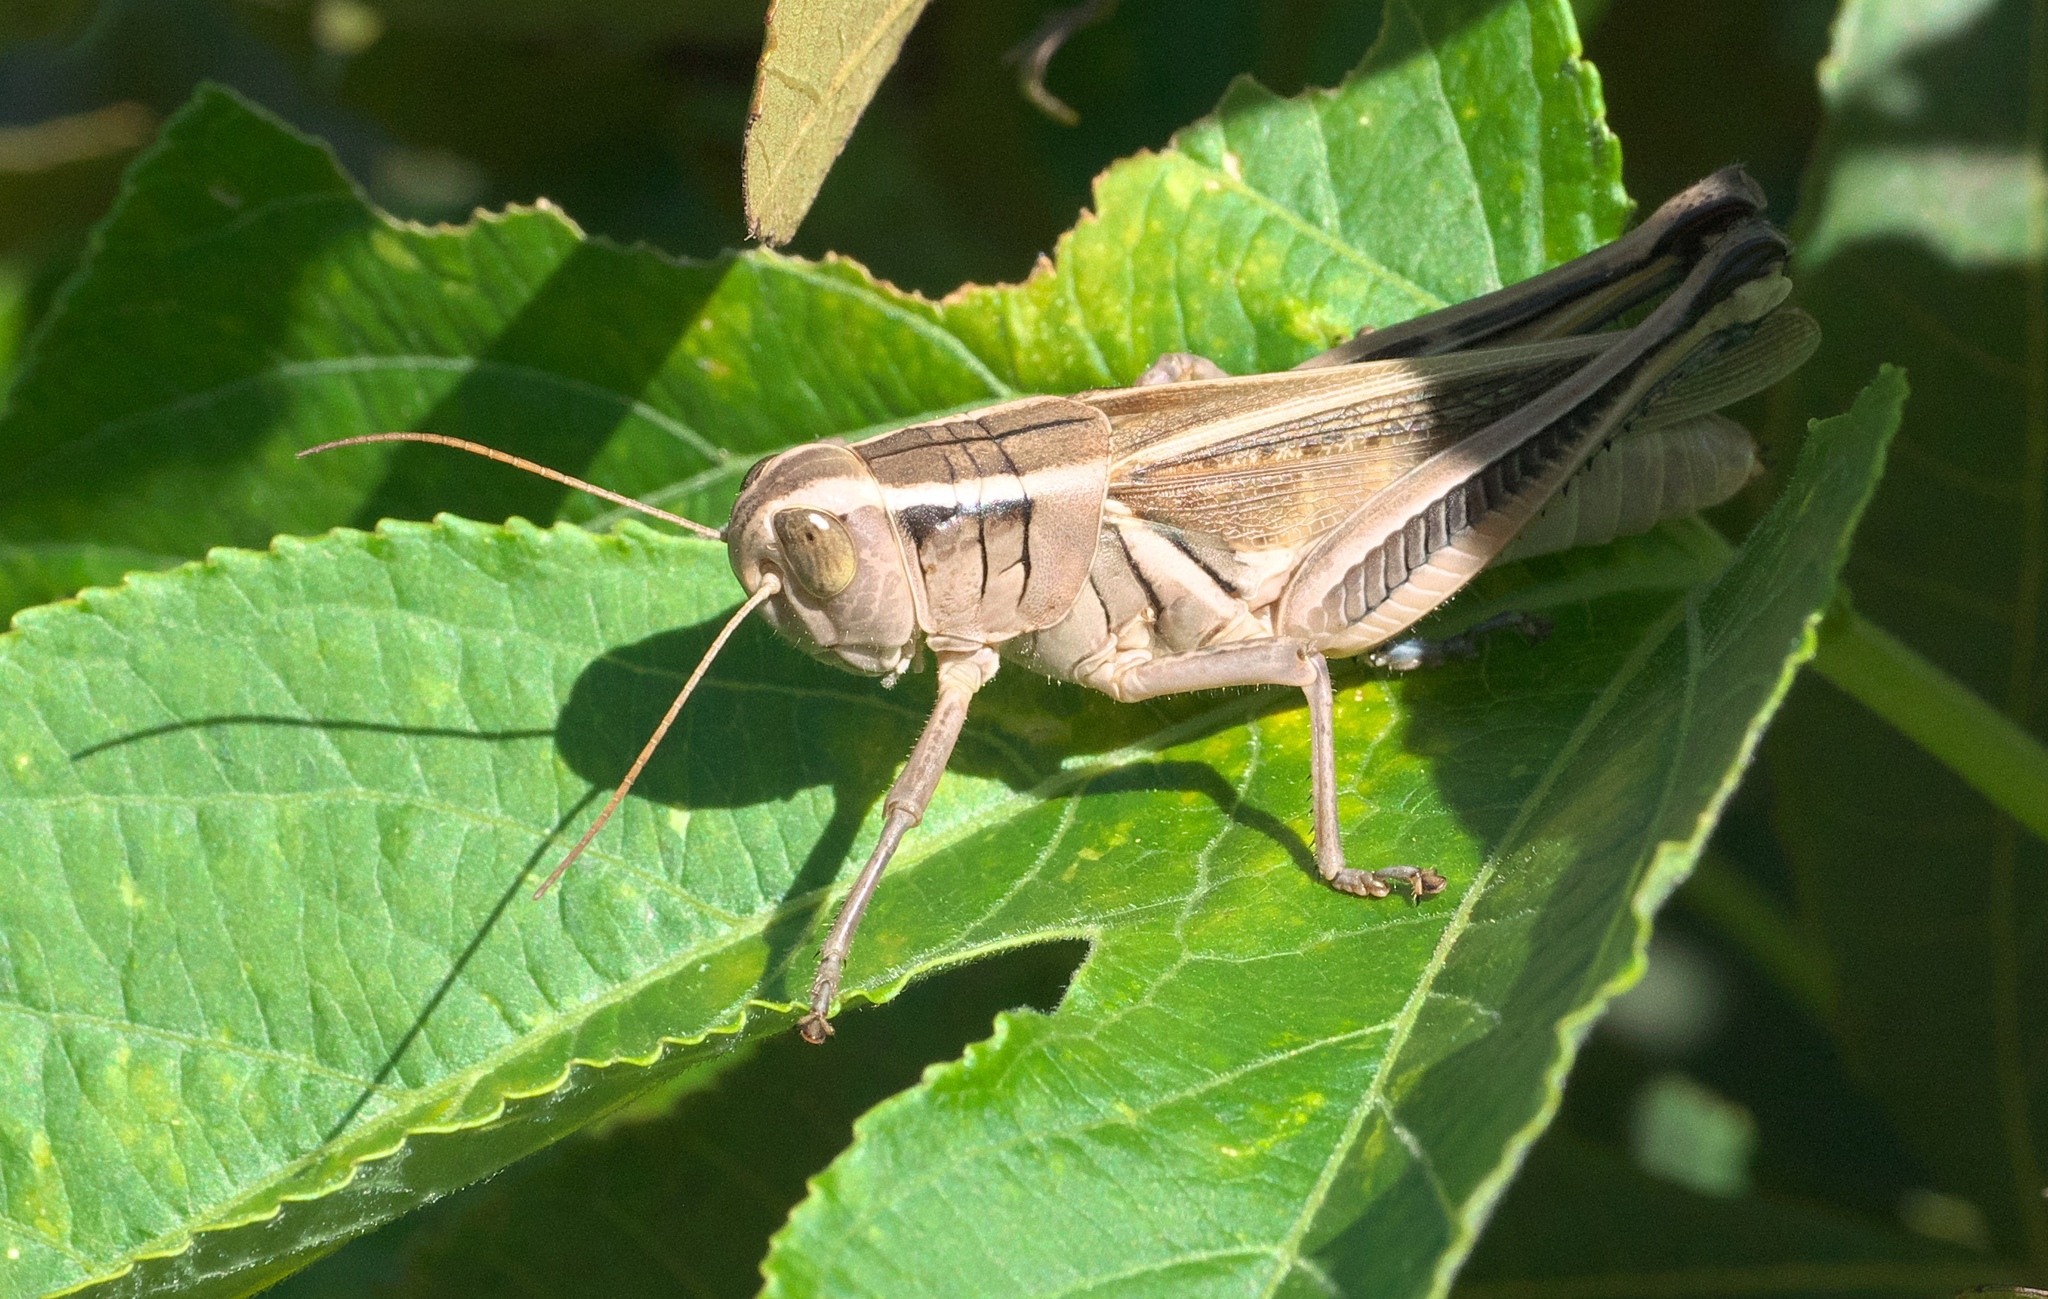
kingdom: Animalia
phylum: Arthropoda
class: Insecta
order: Orthoptera
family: Acrididae
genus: Melanoplus
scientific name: Melanoplus bivittatus
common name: Two-striped grasshopper
